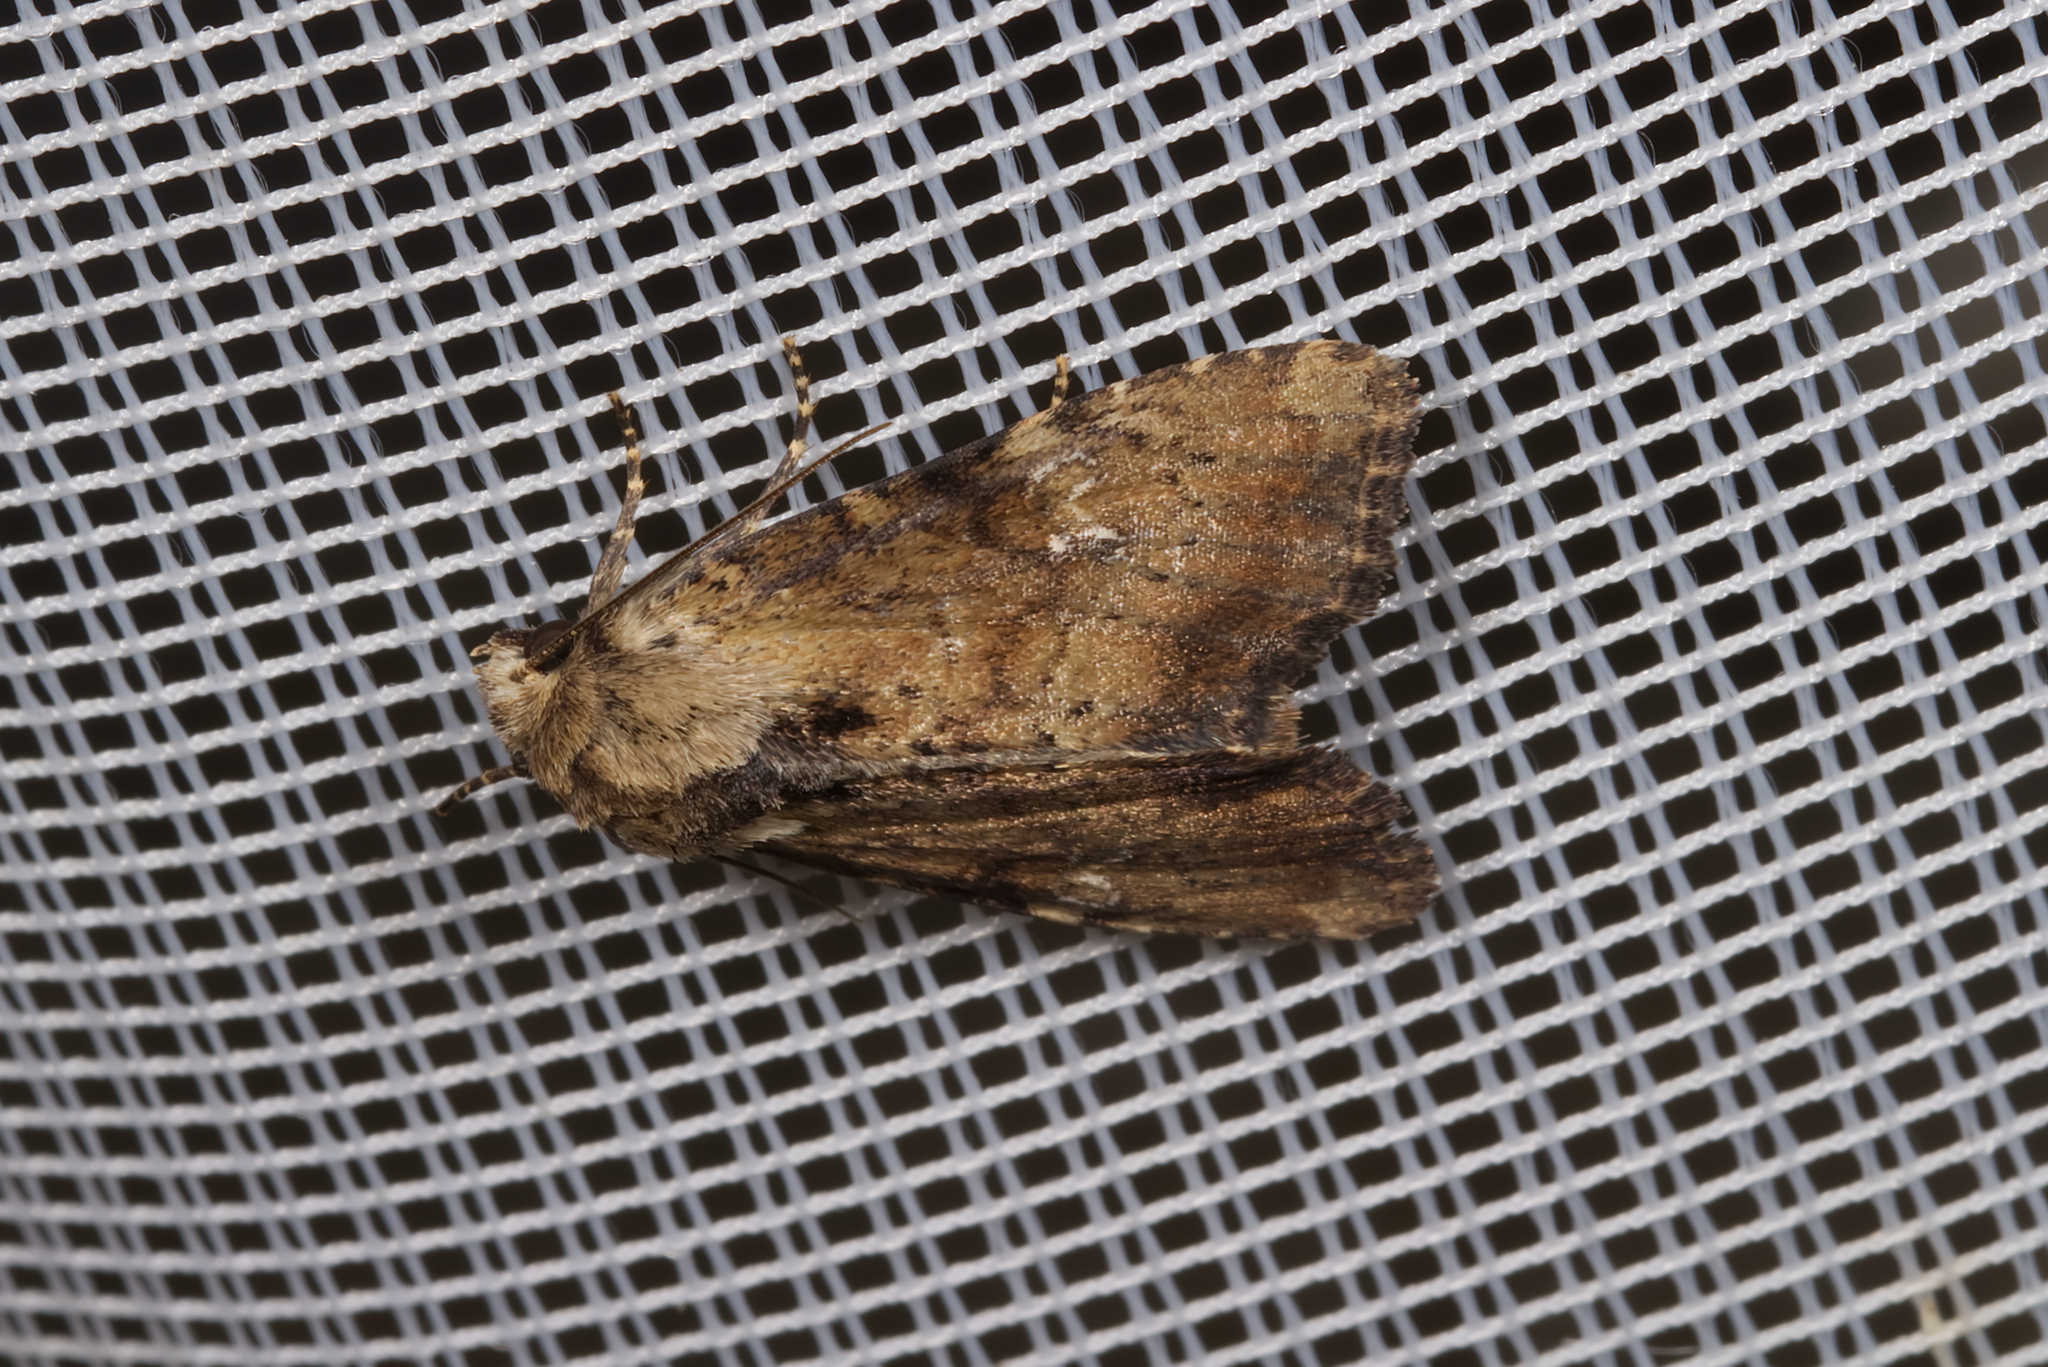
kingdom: Animalia
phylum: Arthropoda
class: Insecta
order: Lepidoptera
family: Noctuidae
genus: Loscopia
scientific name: Loscopia scolopacina
